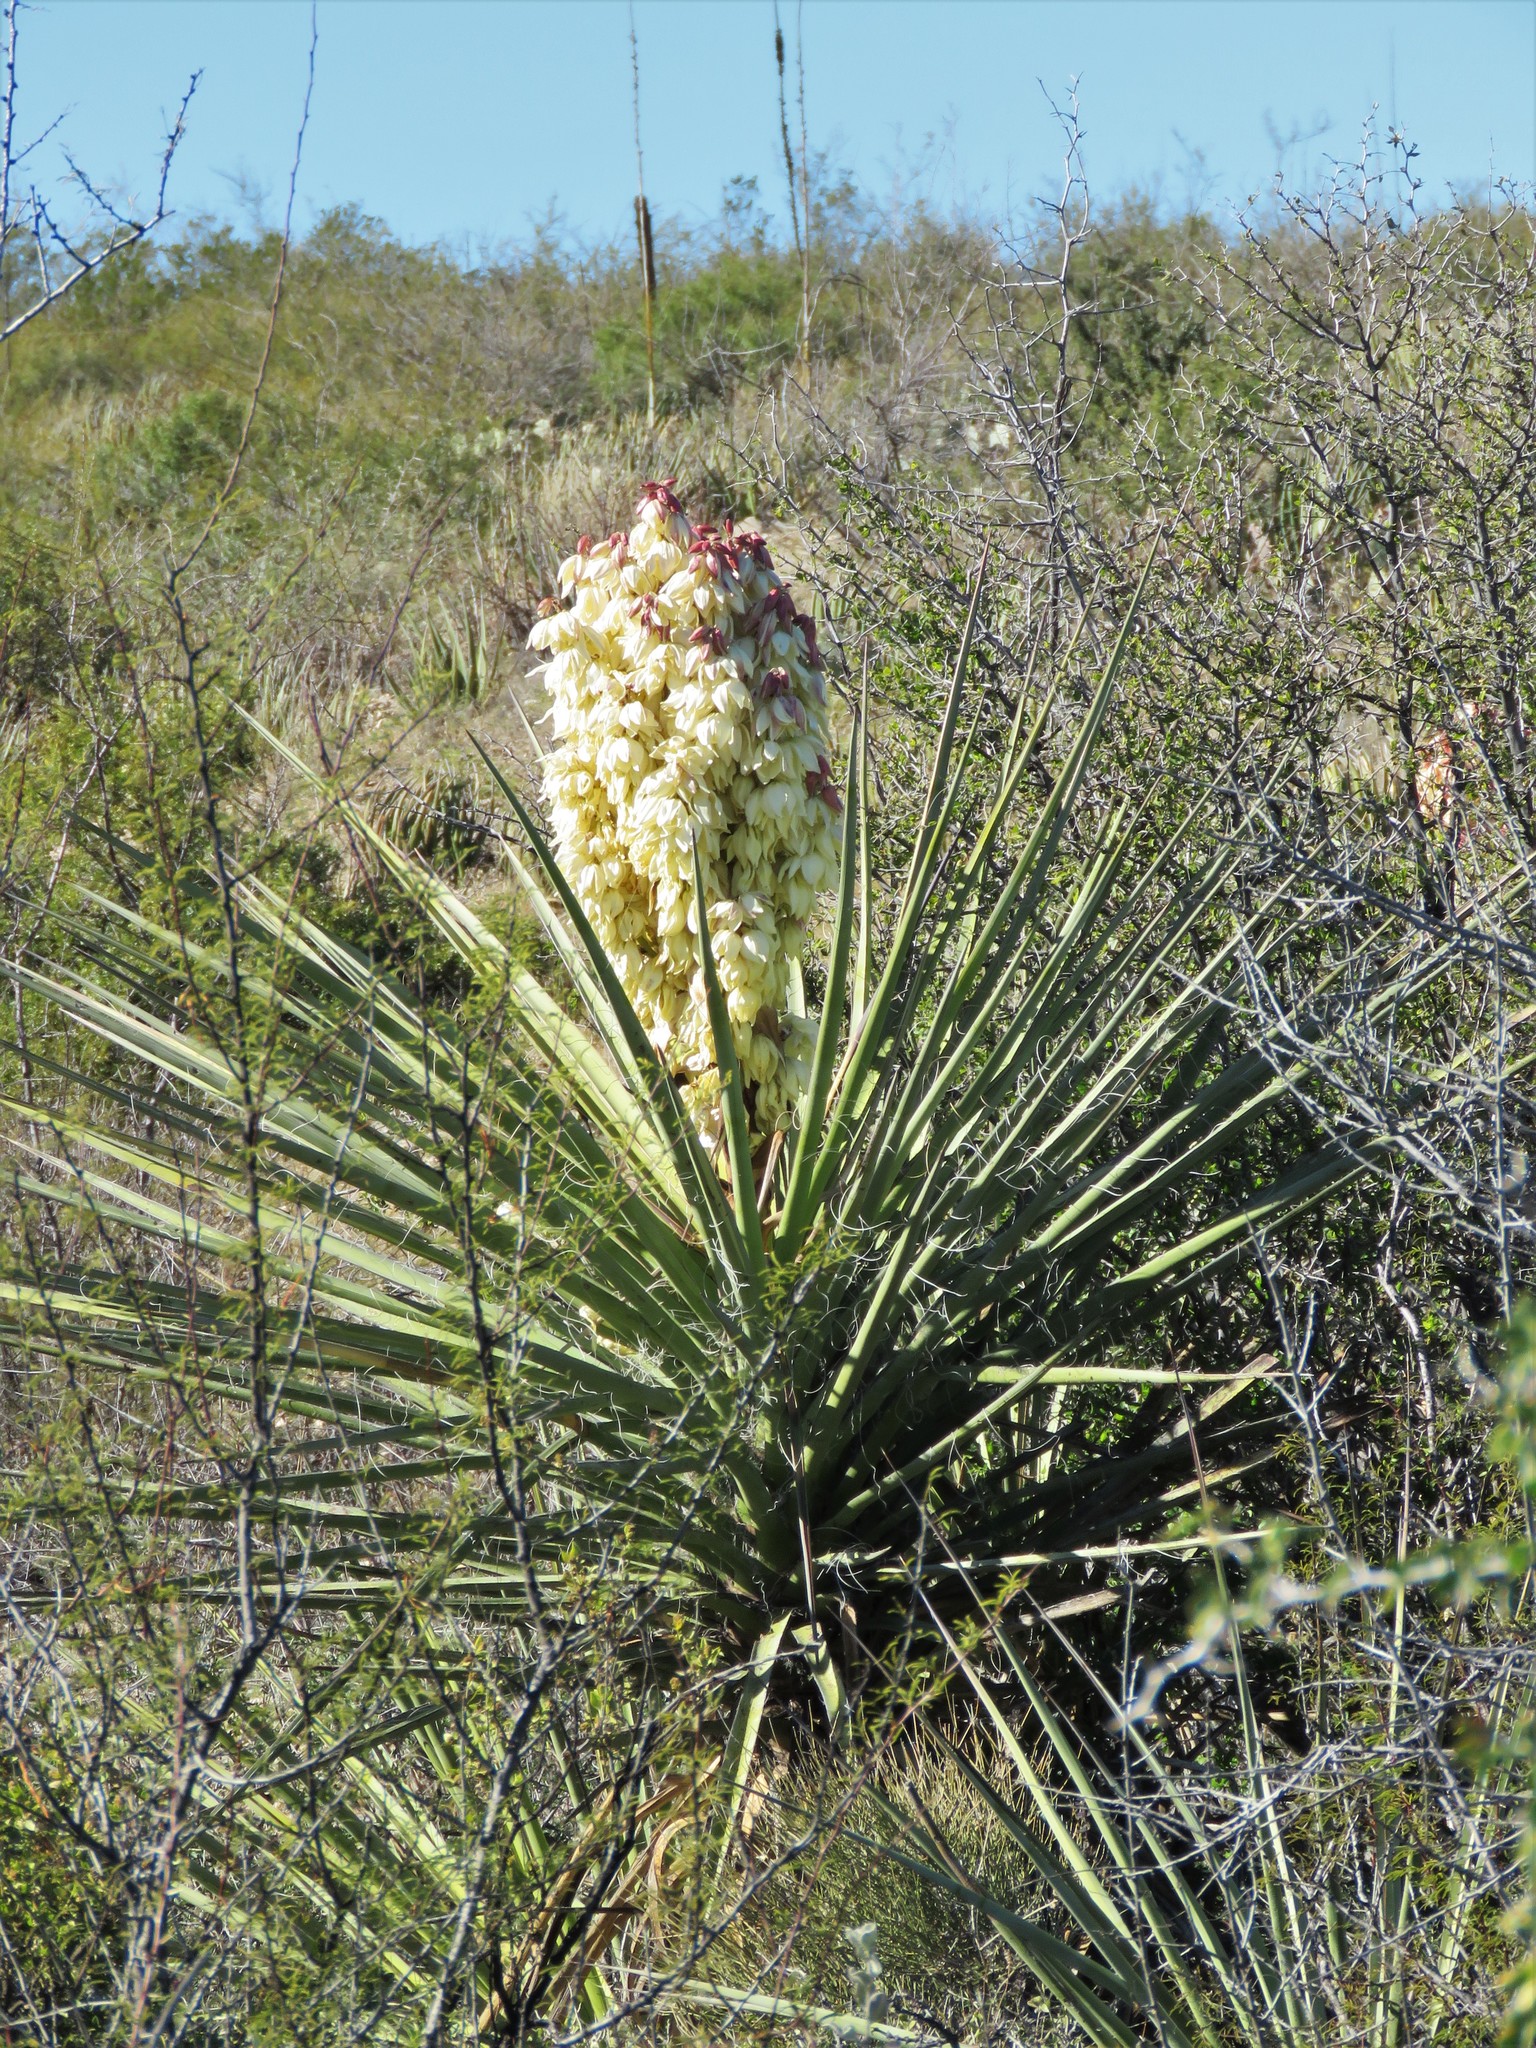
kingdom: Plantae
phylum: Tracheophyta
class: Liliopsida
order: Asparagales
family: Asparagaceae
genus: Yucca
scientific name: Yucca treculiana
